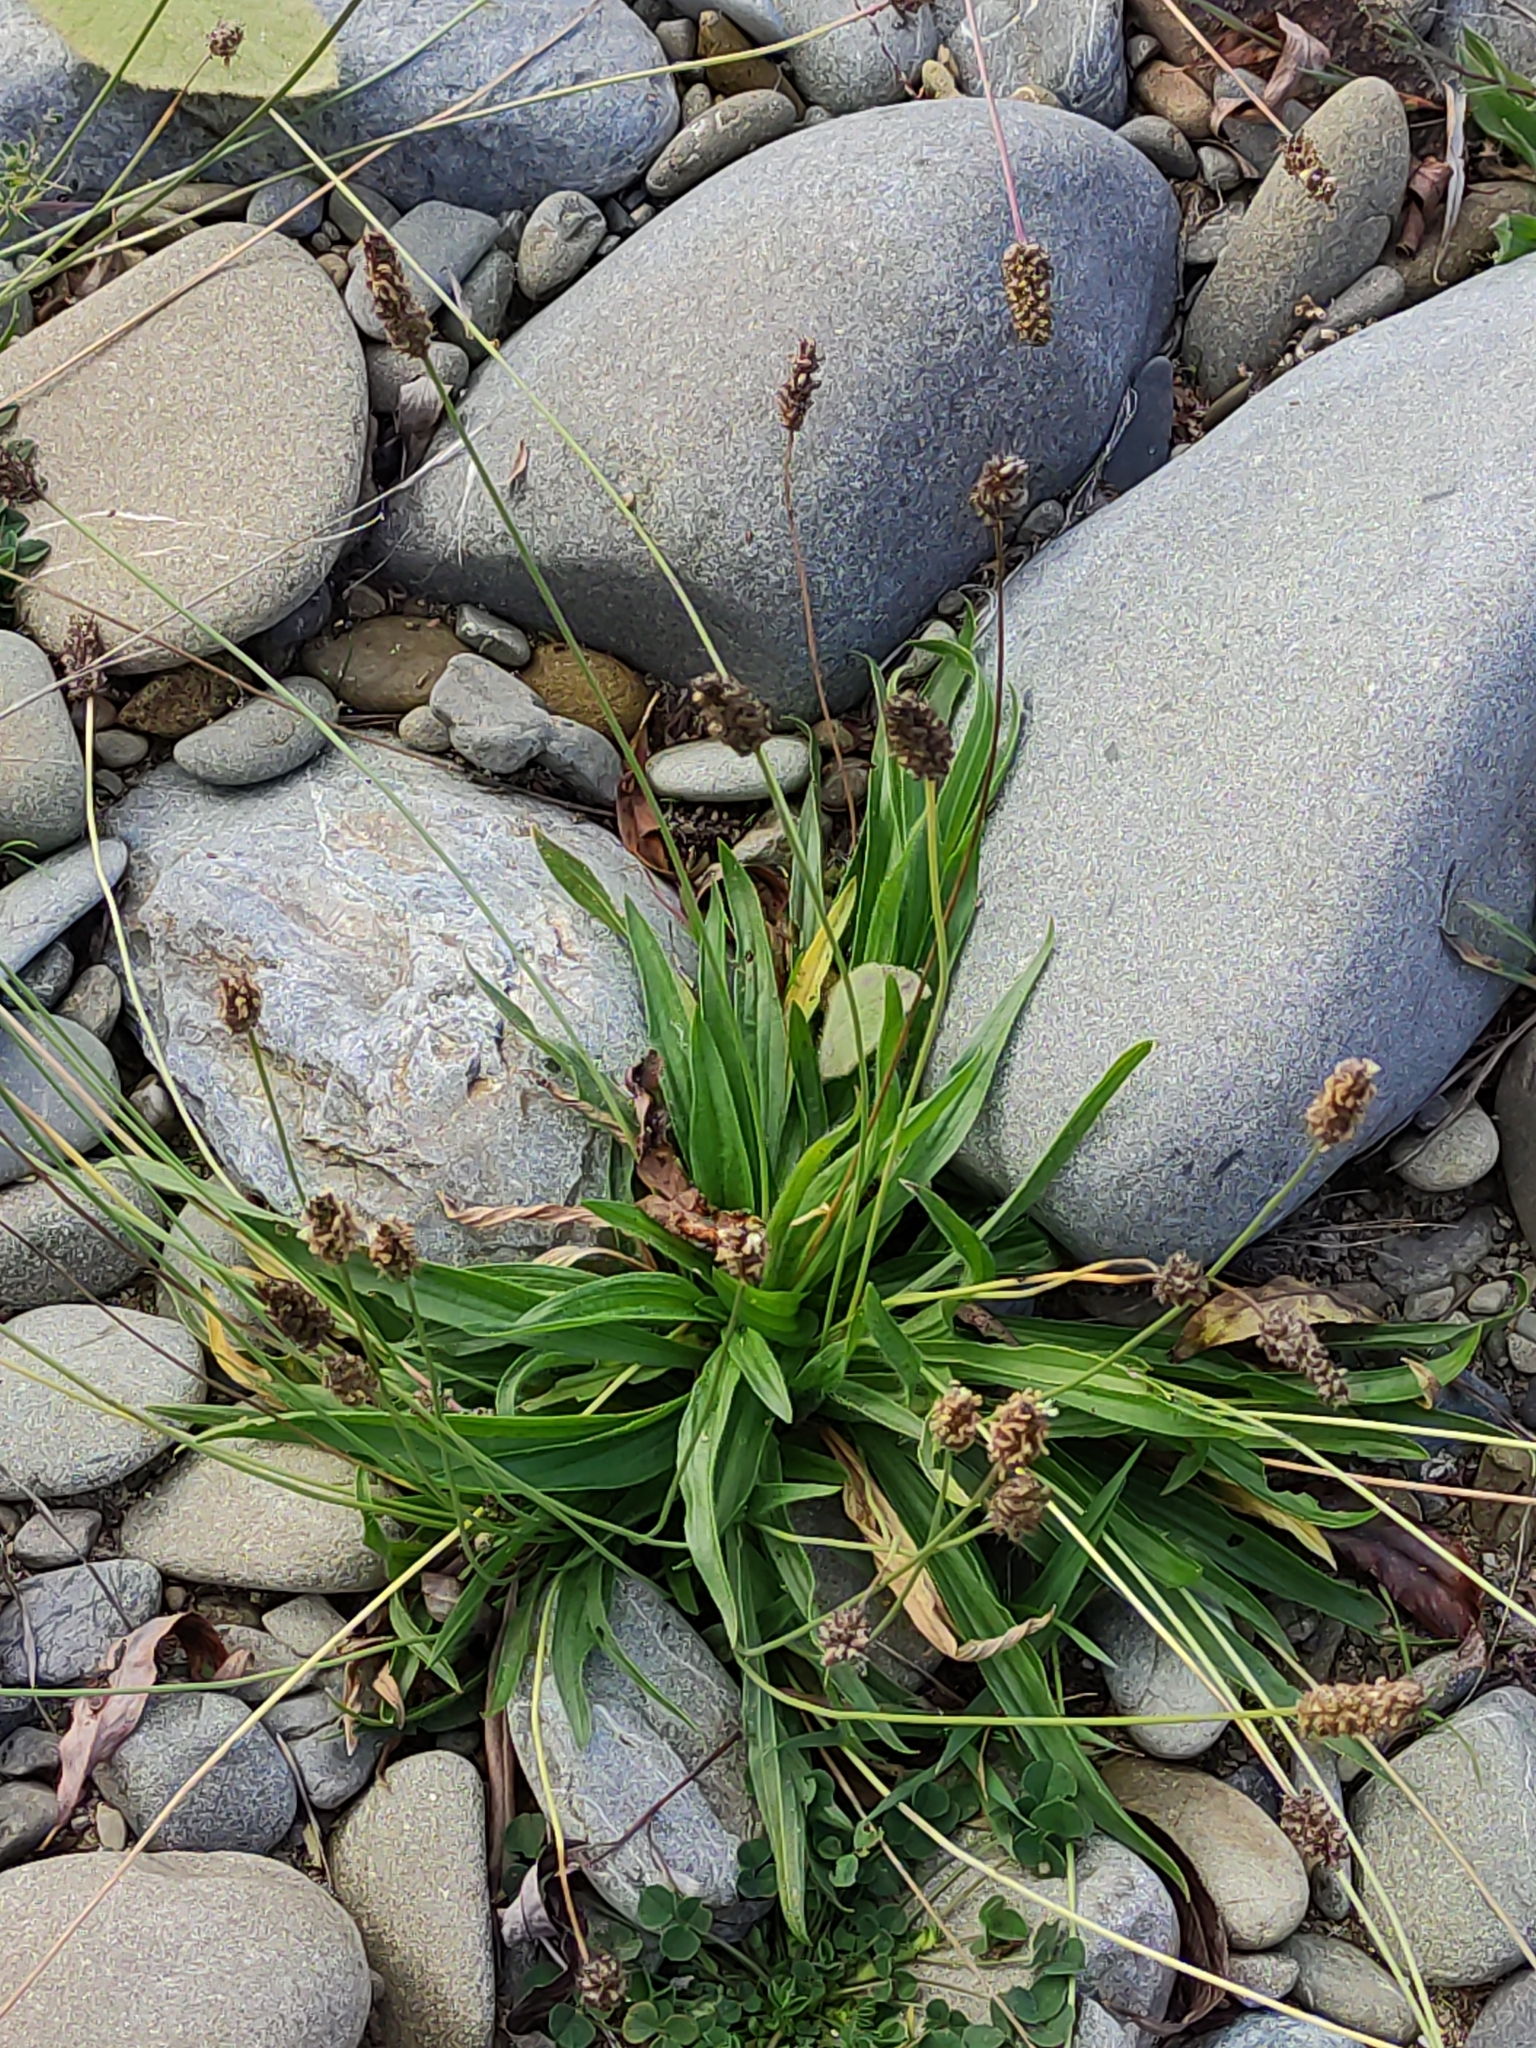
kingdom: Plantae
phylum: Tracheophyta
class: Magnoliopsida
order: Lamiales
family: Plantaginaceae
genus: Plantago
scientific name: Plantago lanceolata
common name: Ribwort plantain
